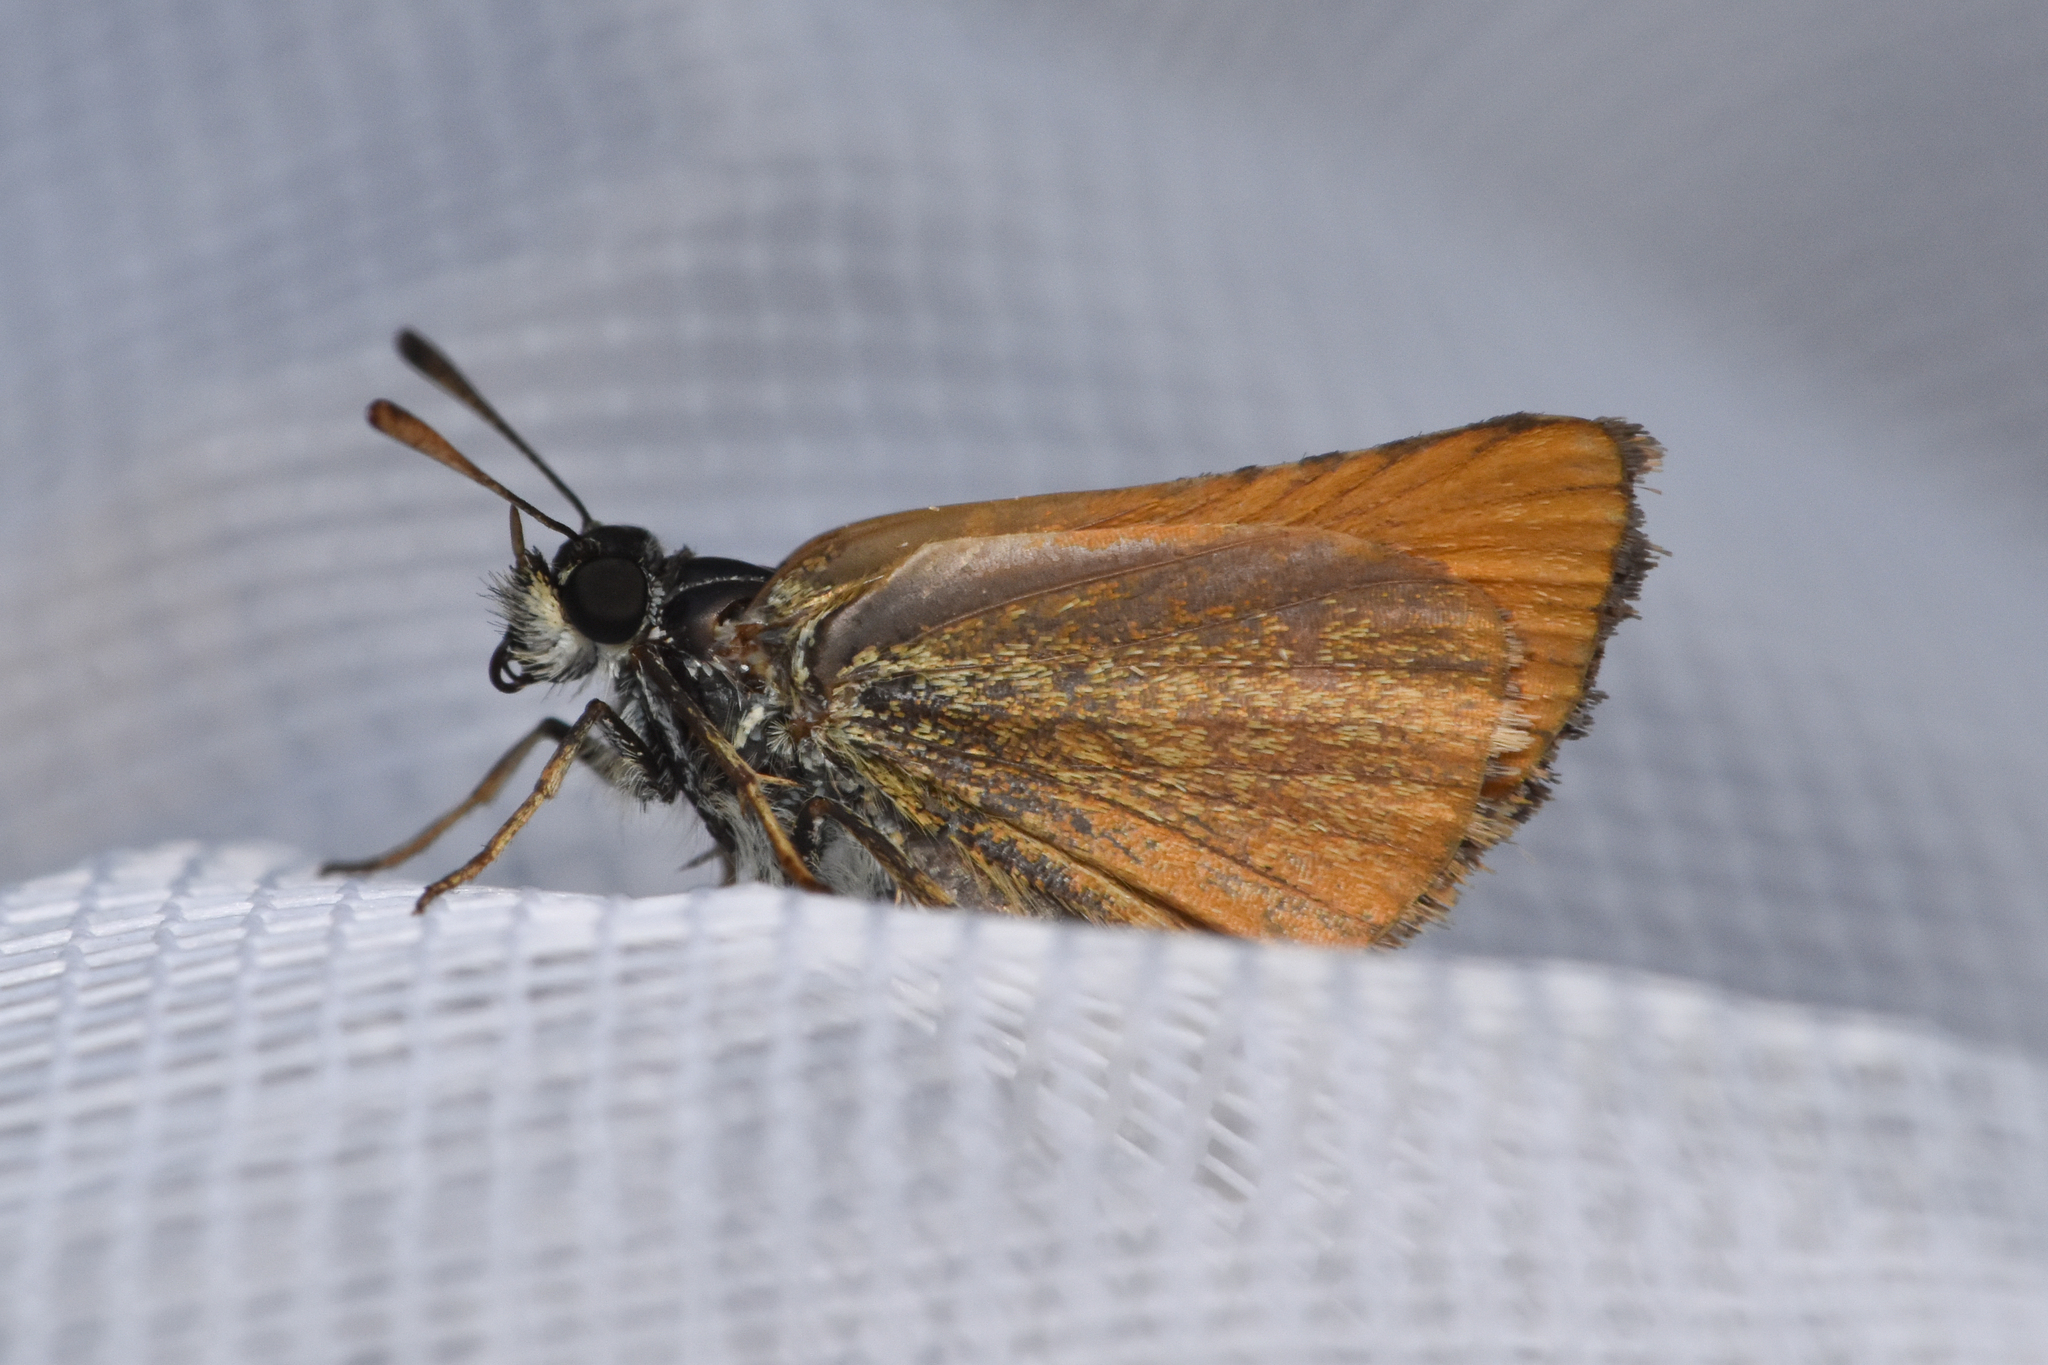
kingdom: Animalia
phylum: Arthropoda
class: Insecta
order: Lepidoptera
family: Hesperiidae
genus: Thymelicus
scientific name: Thymelicus lineola
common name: Essex skipper
